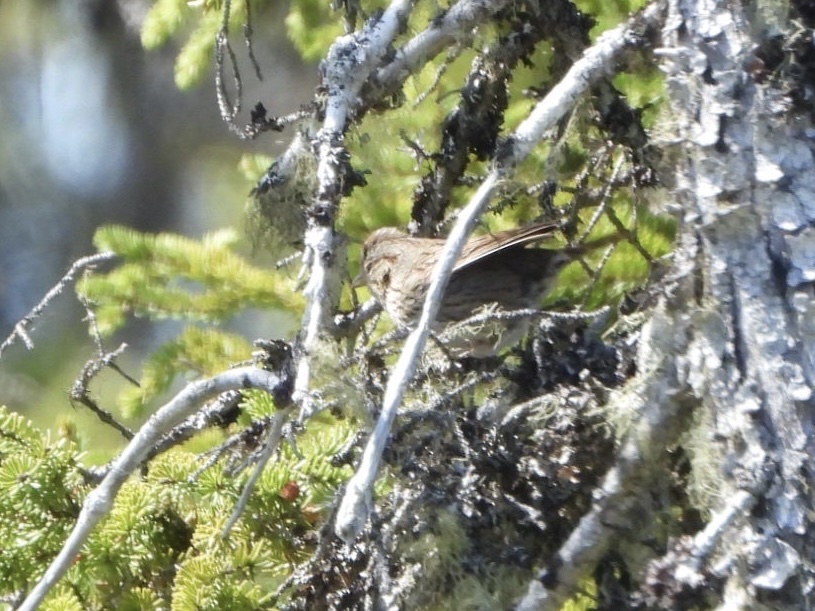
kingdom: Animalia
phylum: Chordata
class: Aves
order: Passeriformes
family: Passerellidae
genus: Melospiza
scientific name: Melospiza lincolnii
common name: Lincoln's sparrow
